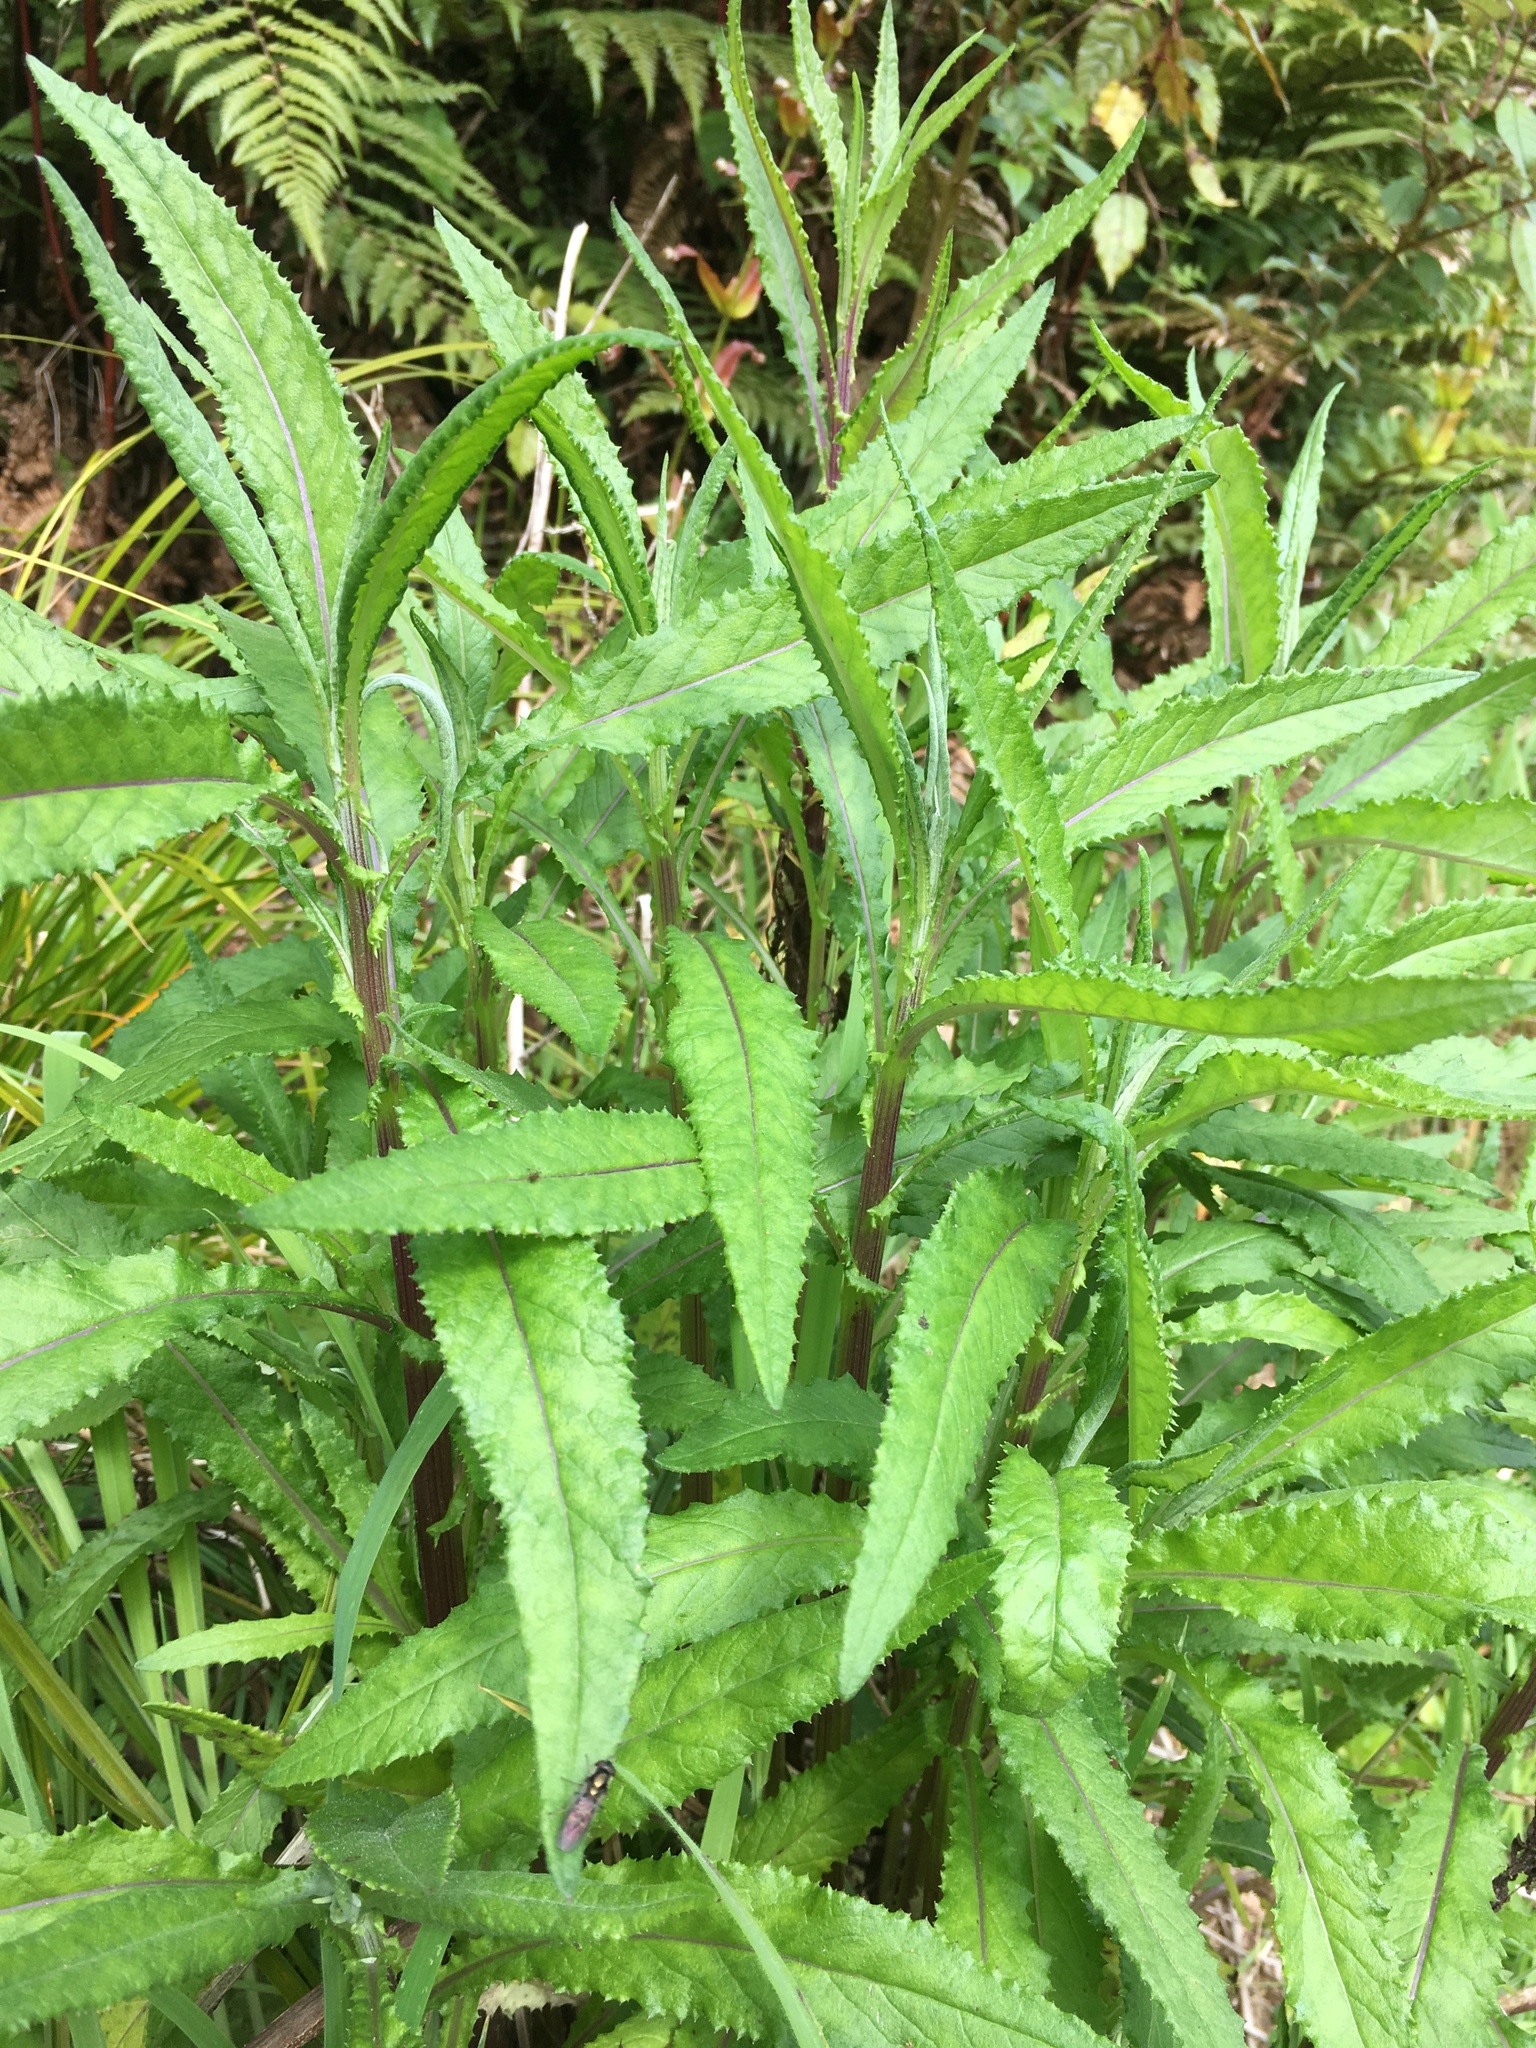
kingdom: Plantae
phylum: Tracheophyta
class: Magnoliopsida
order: Asterales
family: Asteraceae
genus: Senecio
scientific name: Senecio minimus
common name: Toothed fireweed
